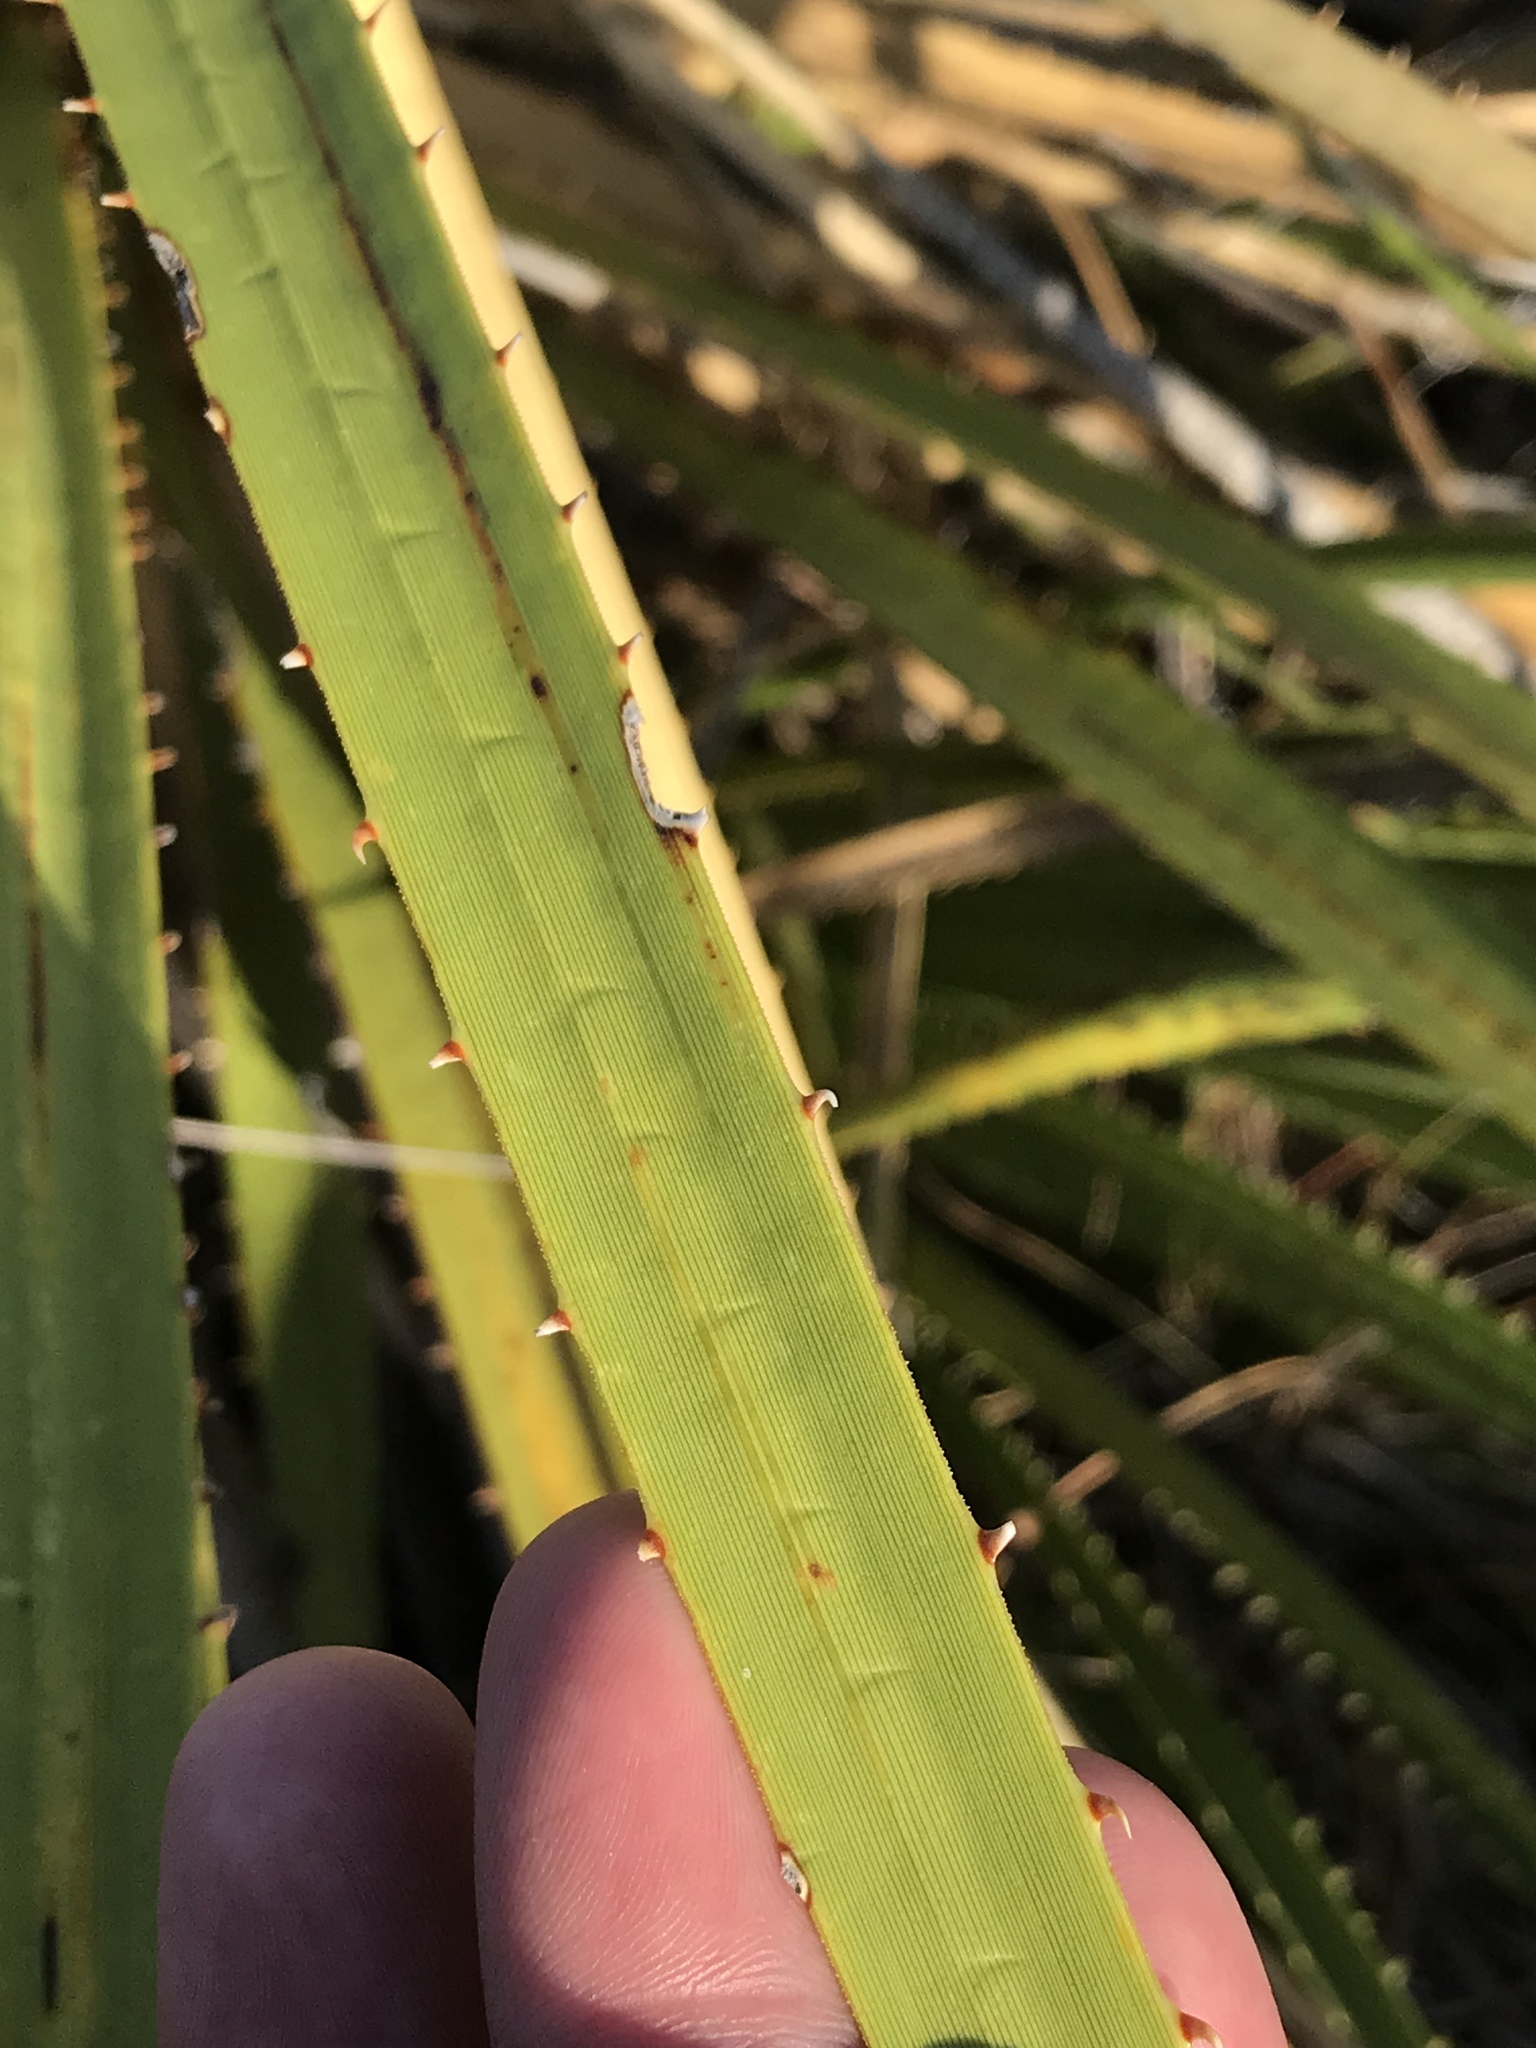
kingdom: Plantae
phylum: Tracheophyta
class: Liliopsida
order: Asparagales
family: Asparagaceae
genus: Dasylirion
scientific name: Dasylirion leiophyllum
